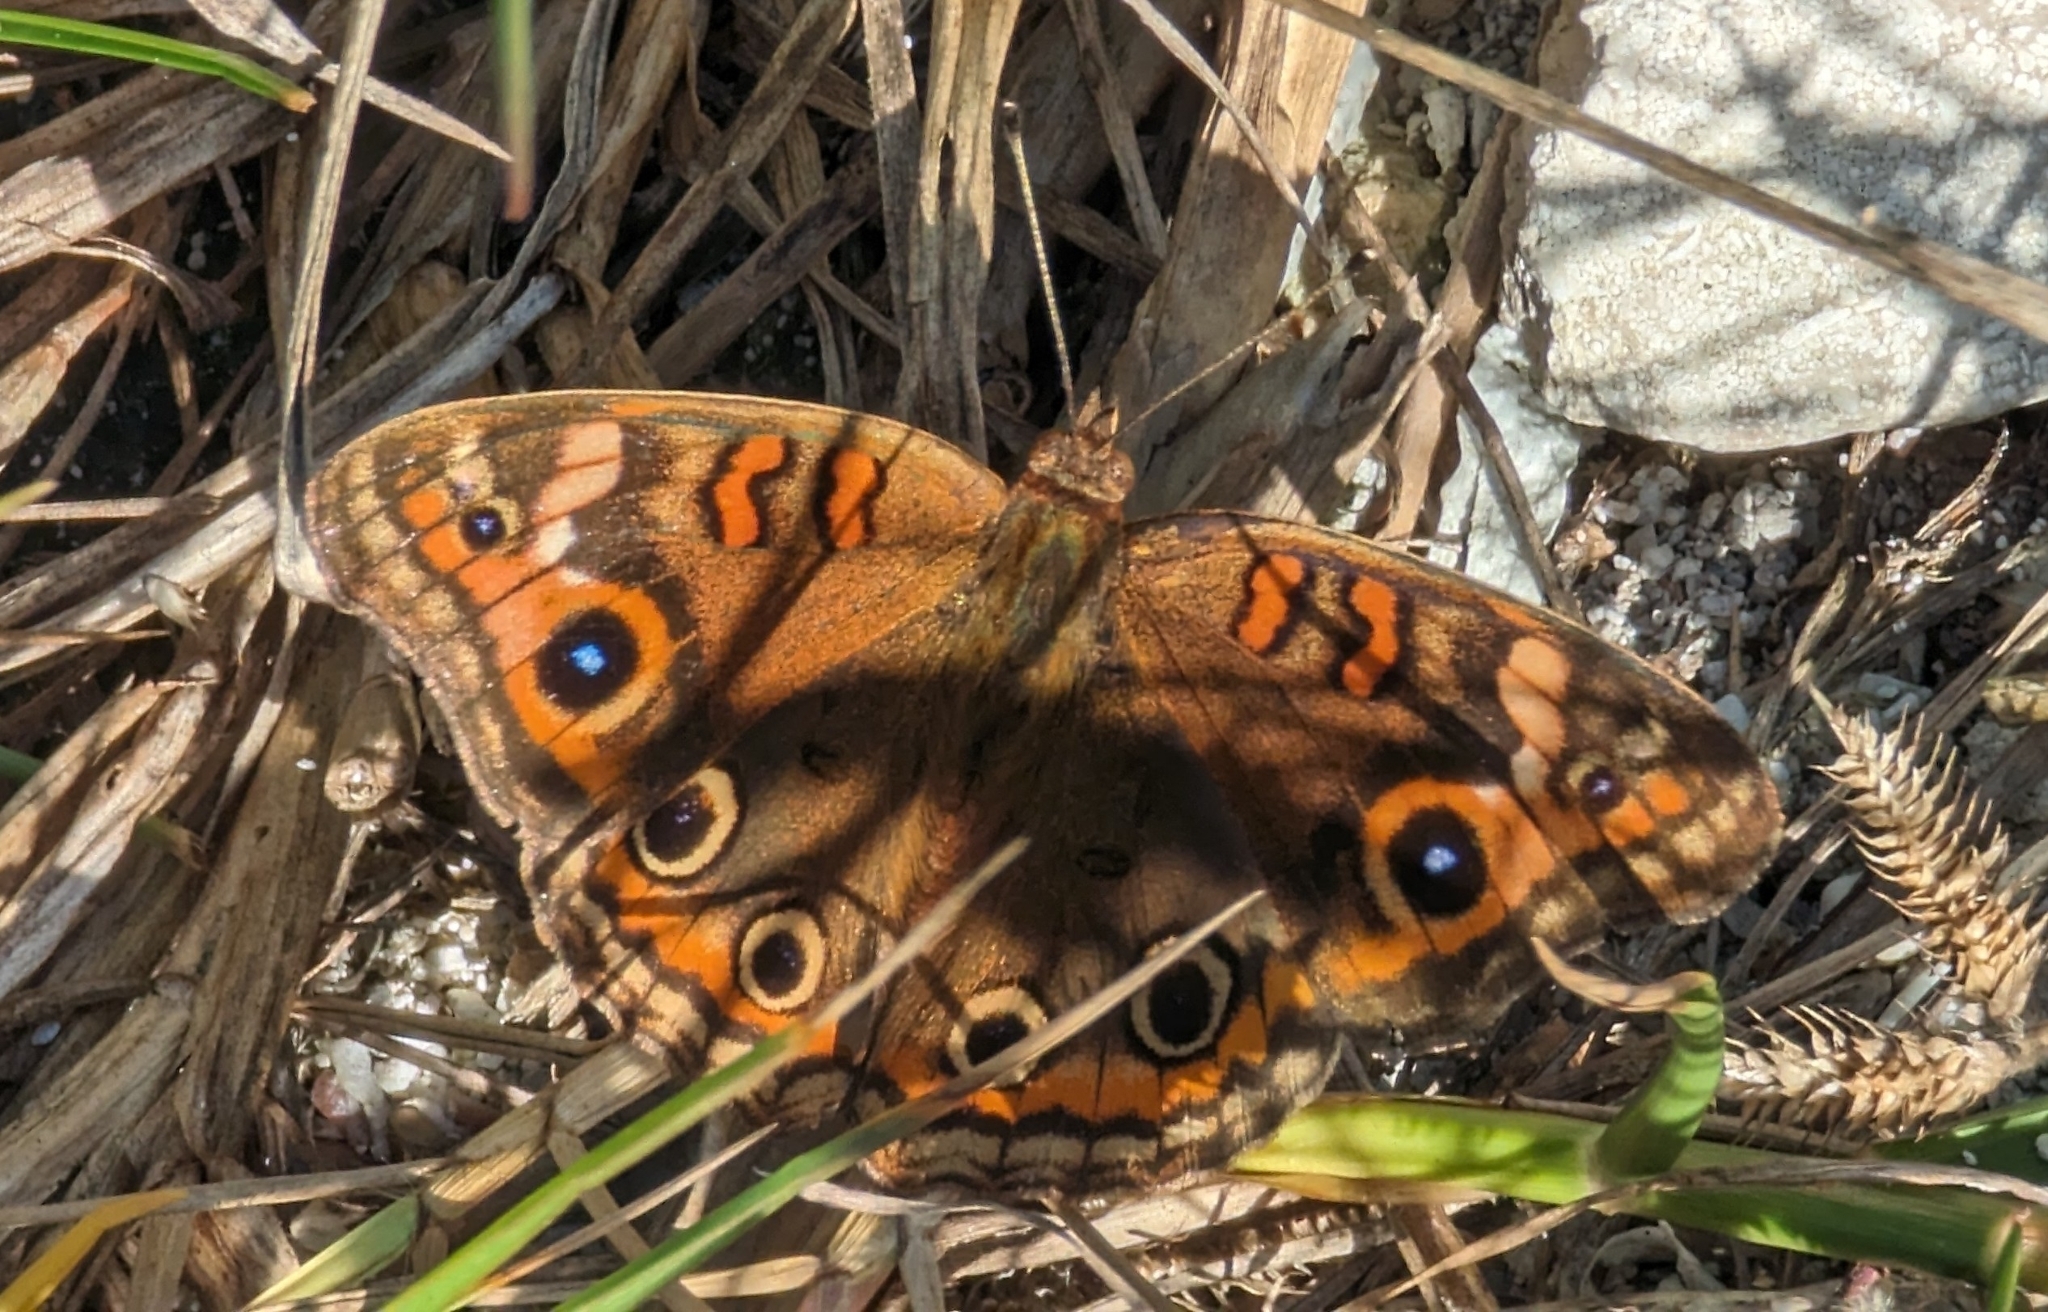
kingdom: Animalia
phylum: Arthropoda
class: Insecta
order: Lepidoptera
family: Nymphalidae
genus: Junonia
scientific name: Junonia neildi
